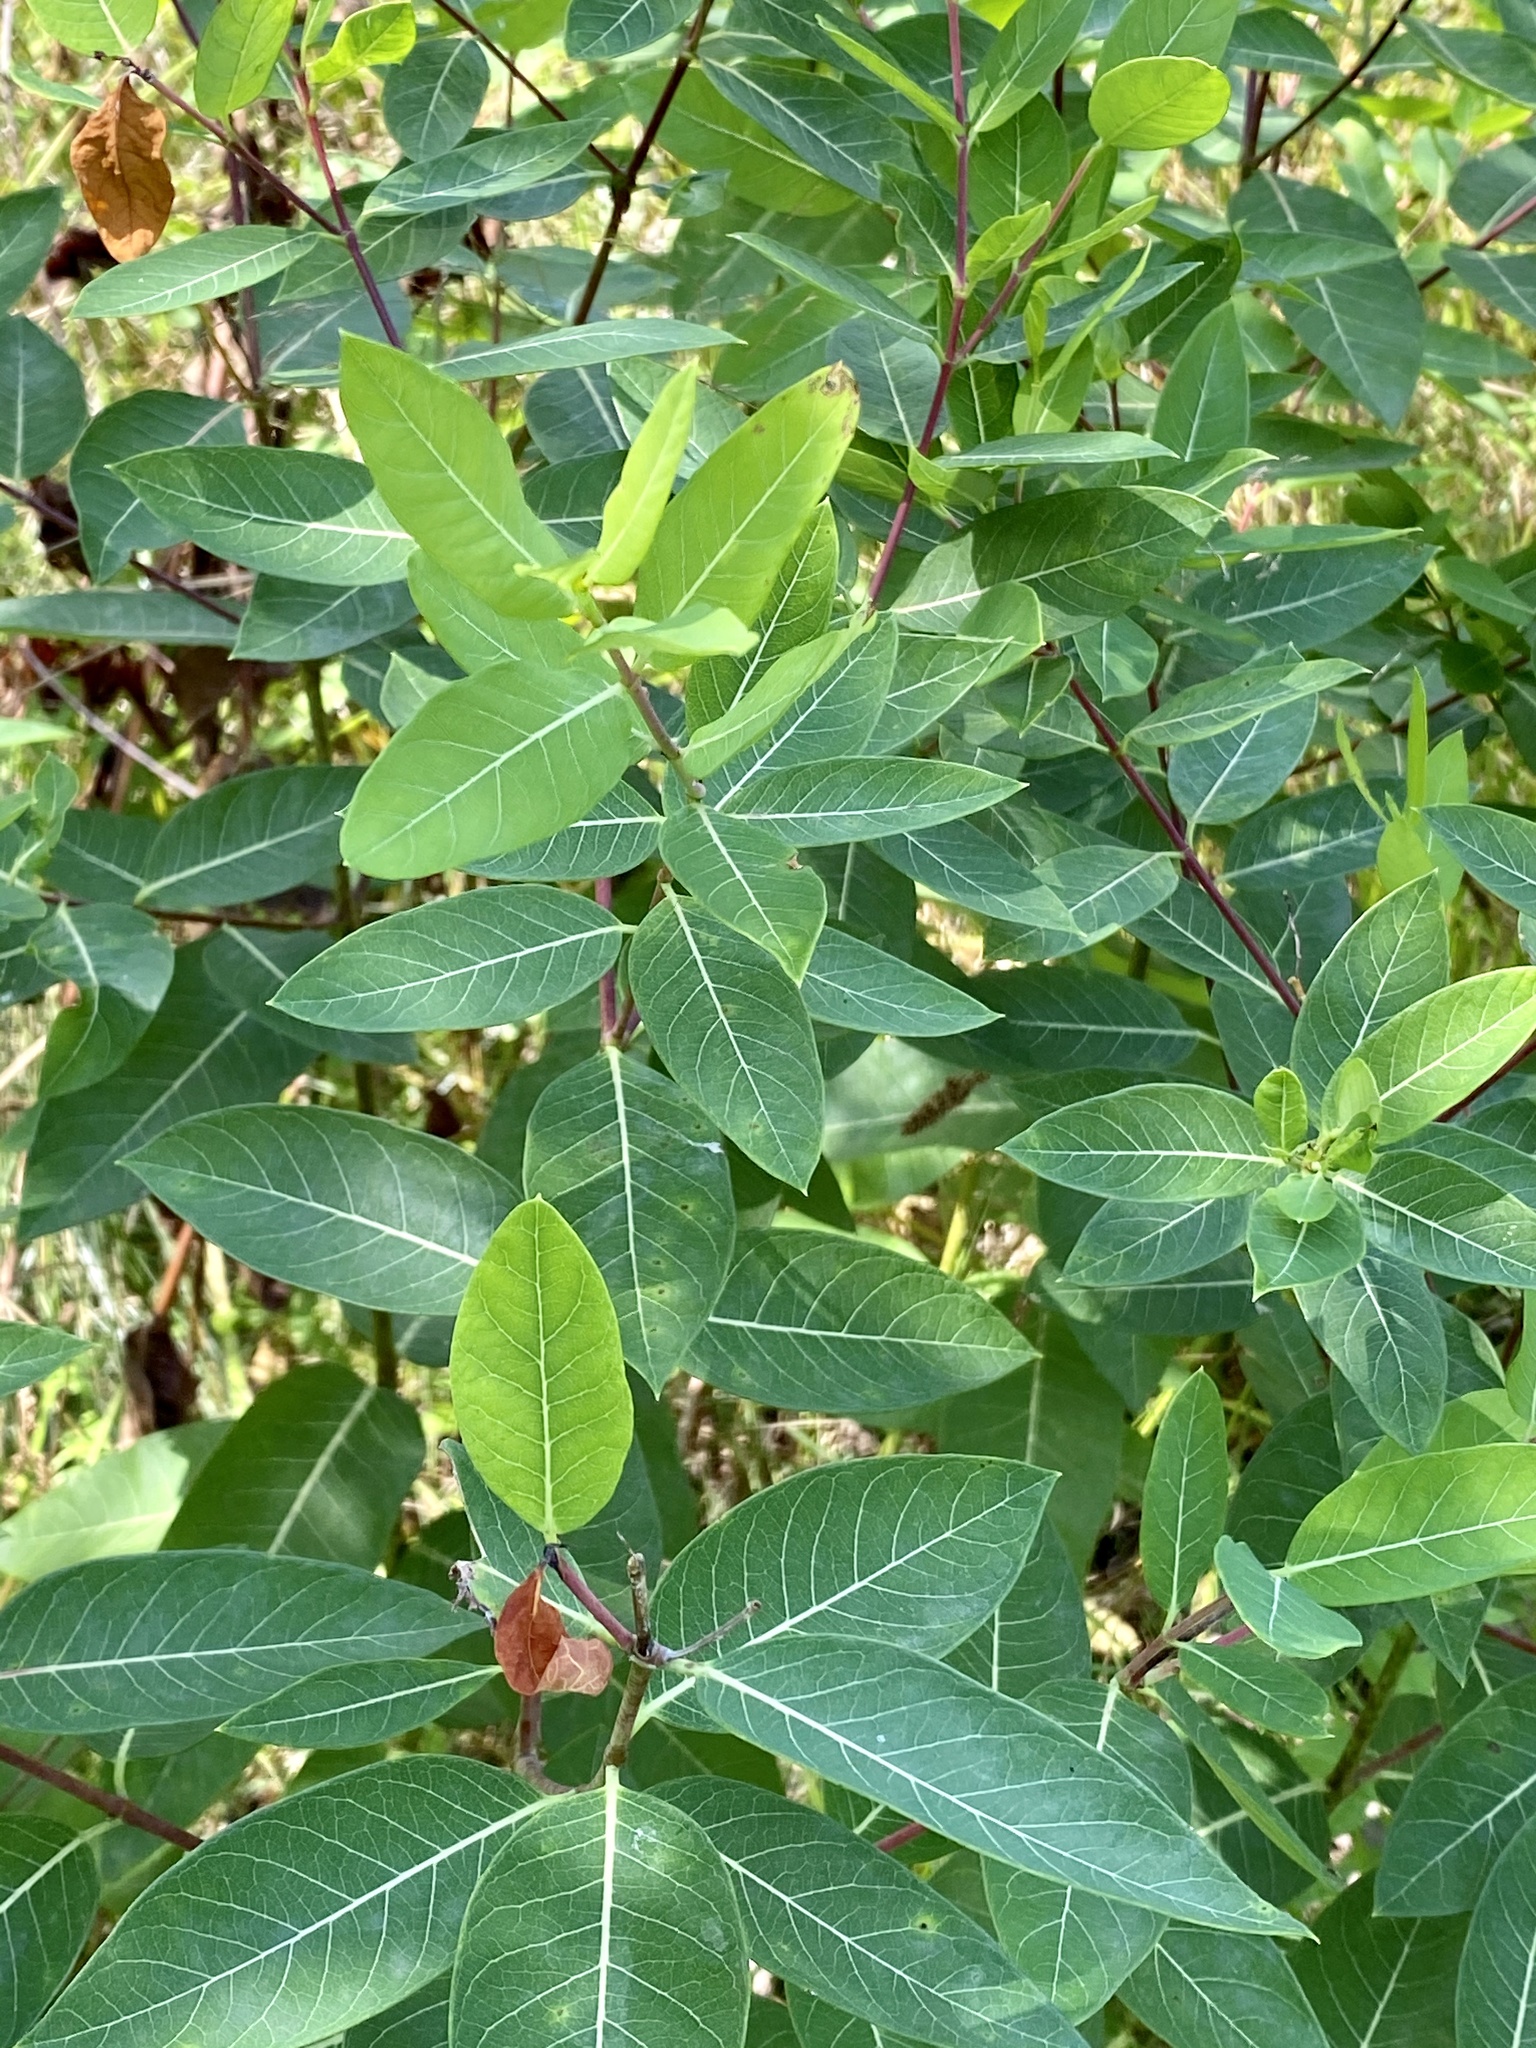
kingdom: Plantae
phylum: Tracheophyta
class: Magnoliopsida
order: Gentianales
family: Apocynaceae
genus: Apocynum
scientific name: Apocynum cannabinum
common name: Hemp dogbane
